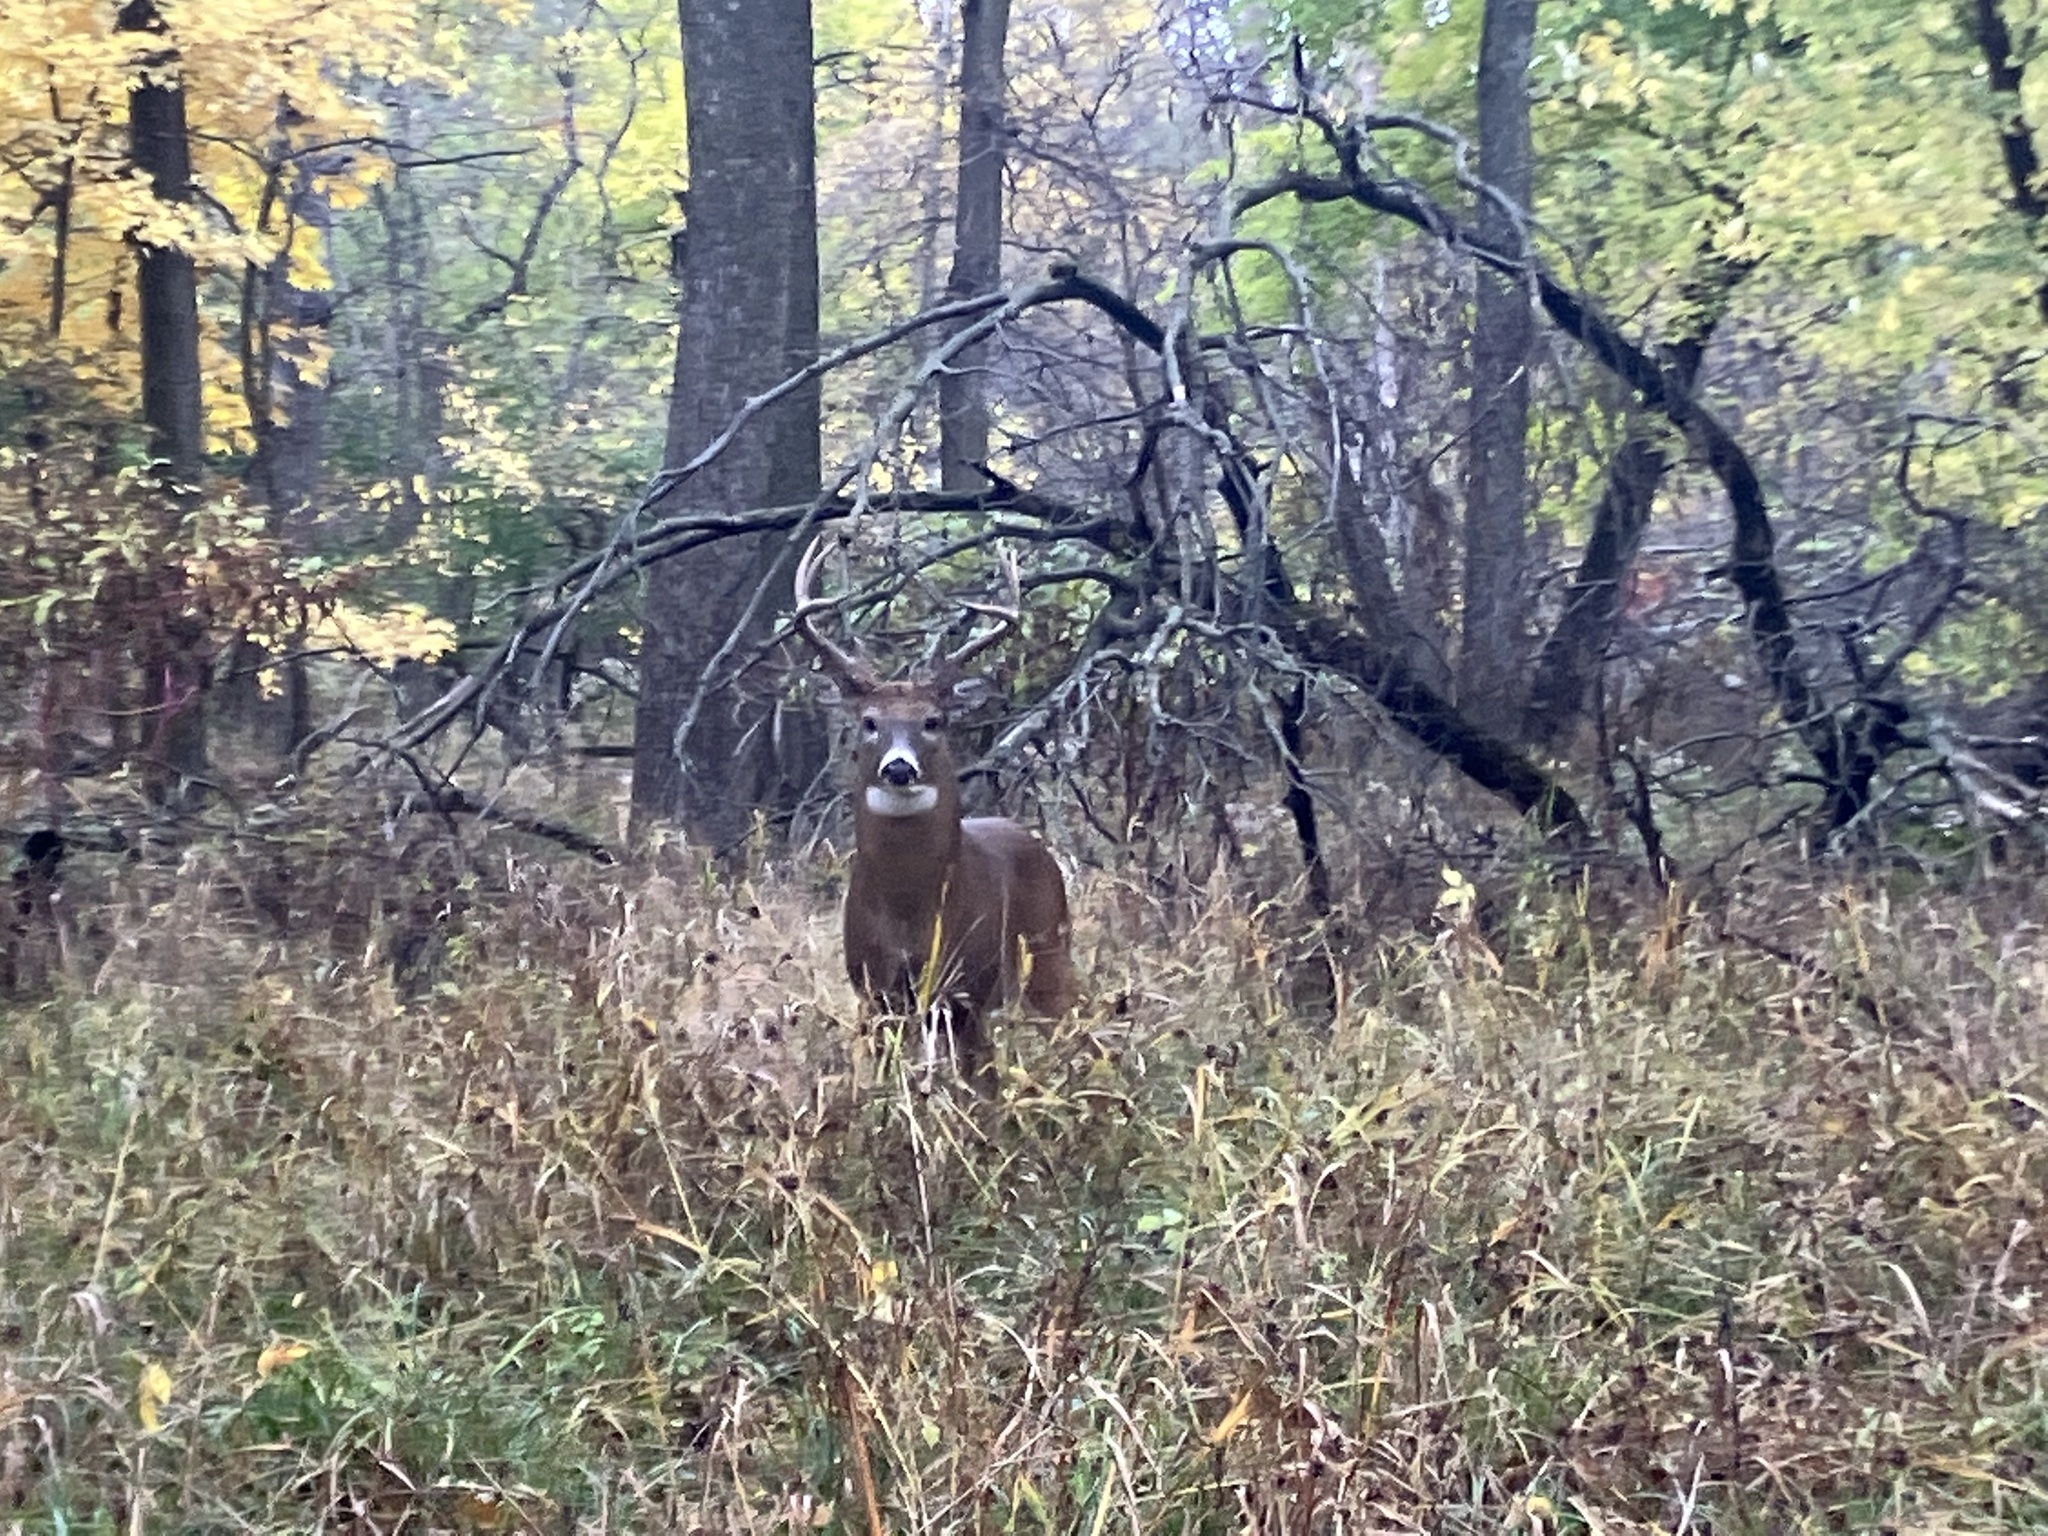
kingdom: Animalia
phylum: Chordata
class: Mammalia
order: Artiodactyla
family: Cervidae
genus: Odocoileus
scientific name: Odocoileus virginianus
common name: White-tailed deer
